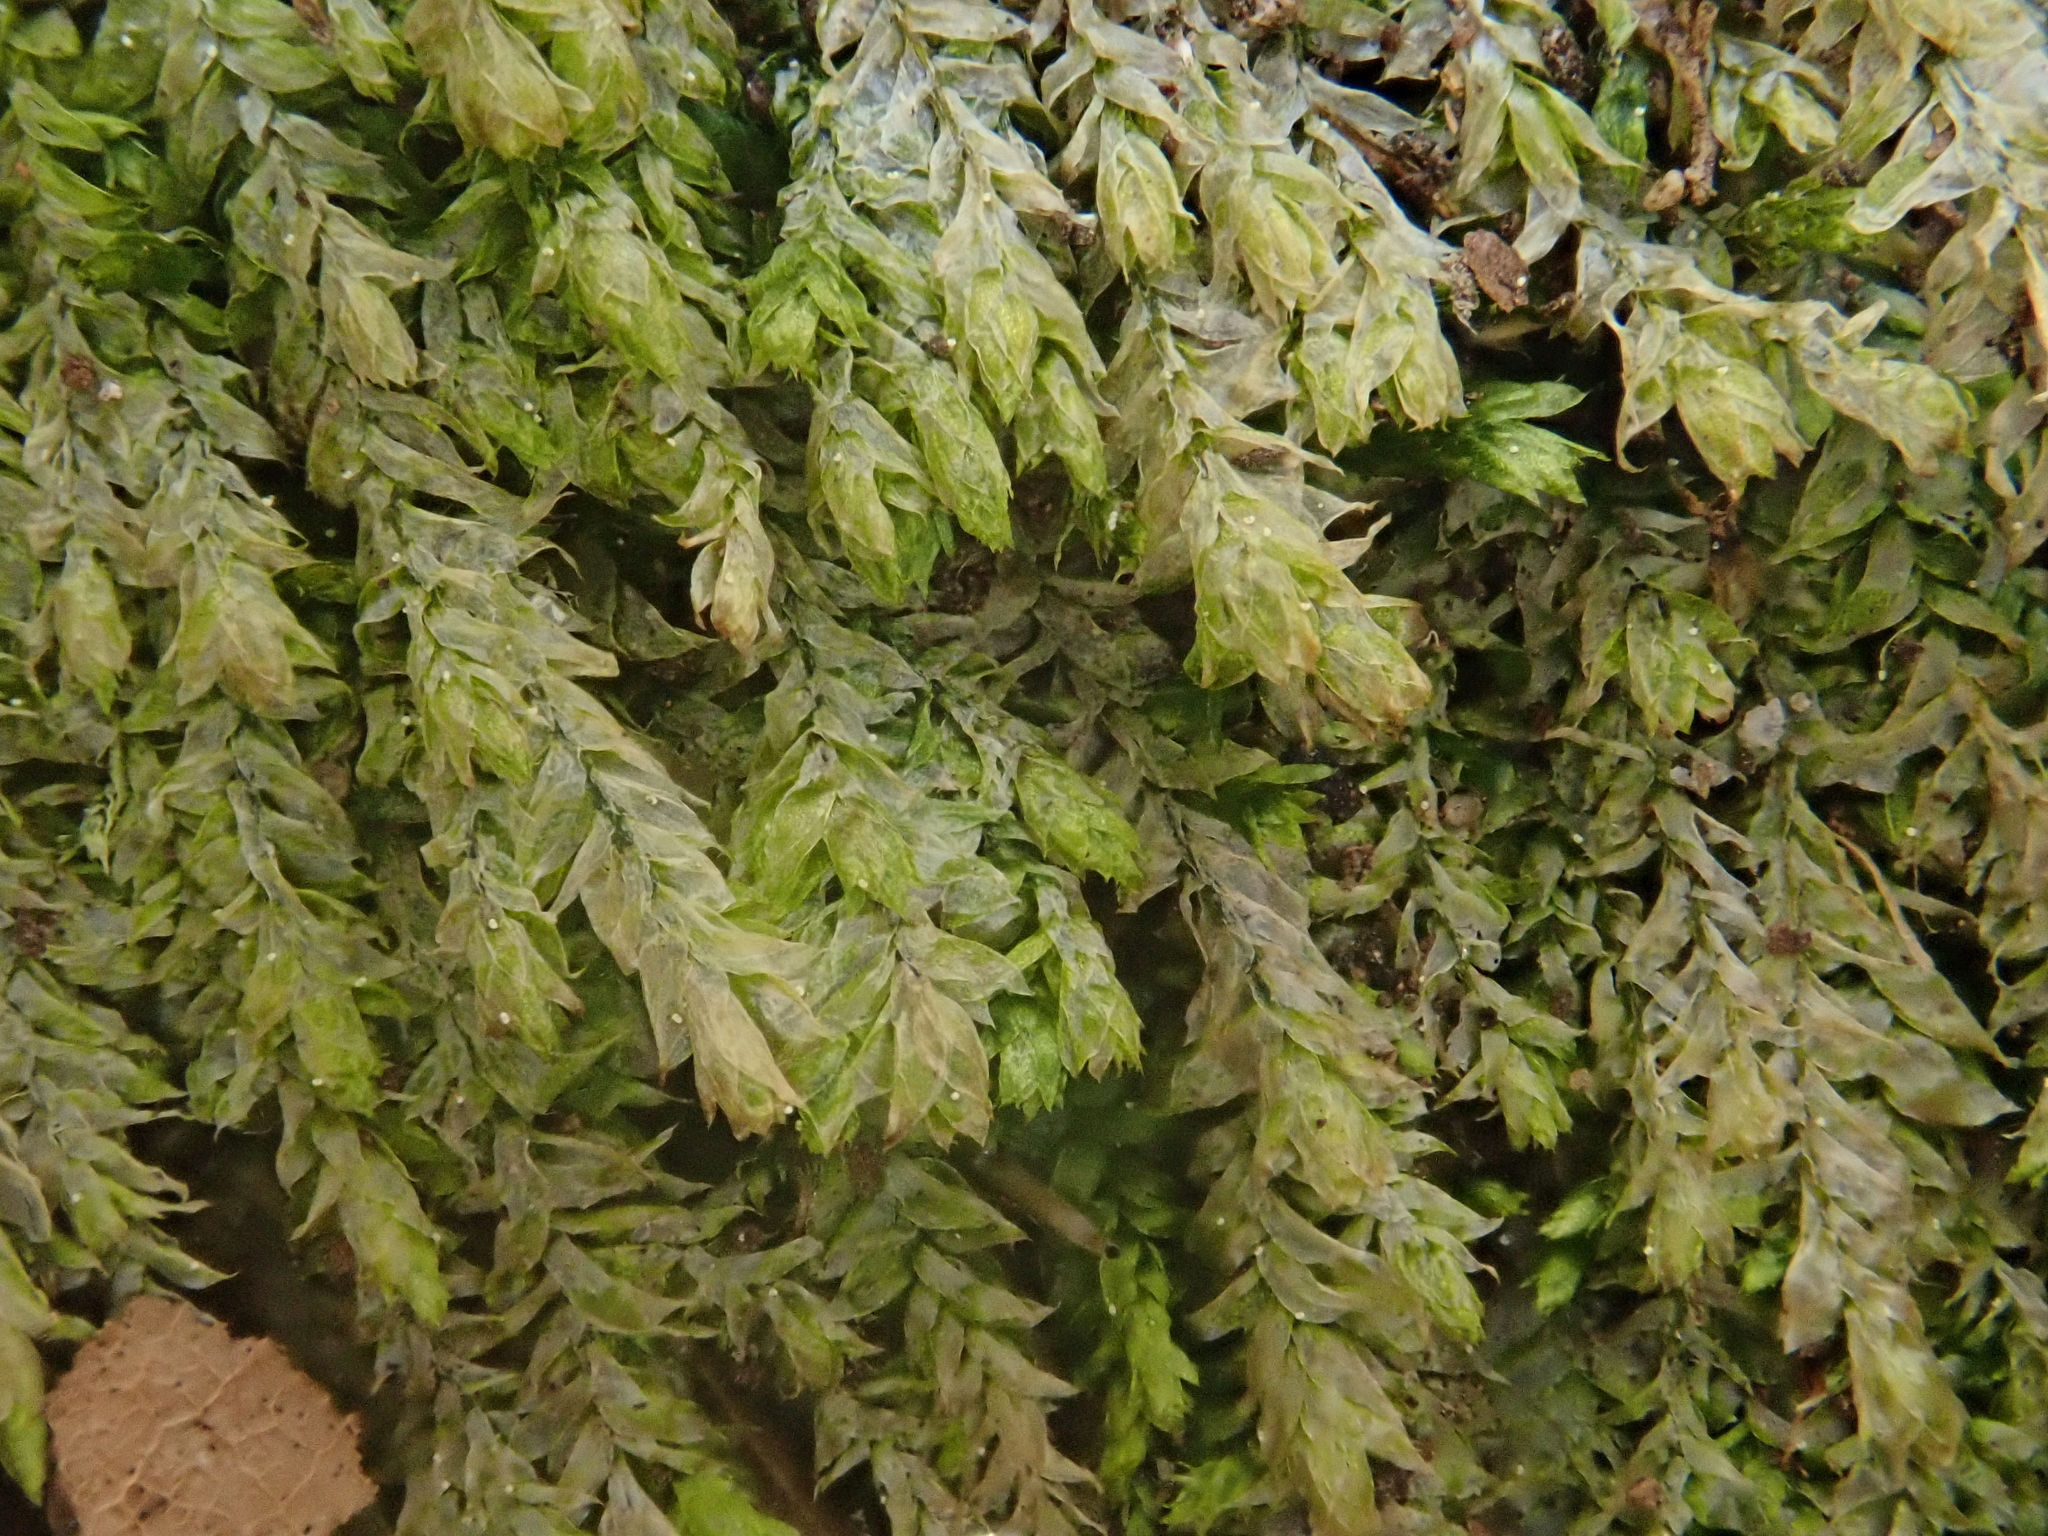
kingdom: Plantae
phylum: Bryophyta
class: Bryopsida
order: Hypnales
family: Plagiotheciaceae
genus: Plagiothecium
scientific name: Plagiothecium nemorale
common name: Woodsy silk-moss
